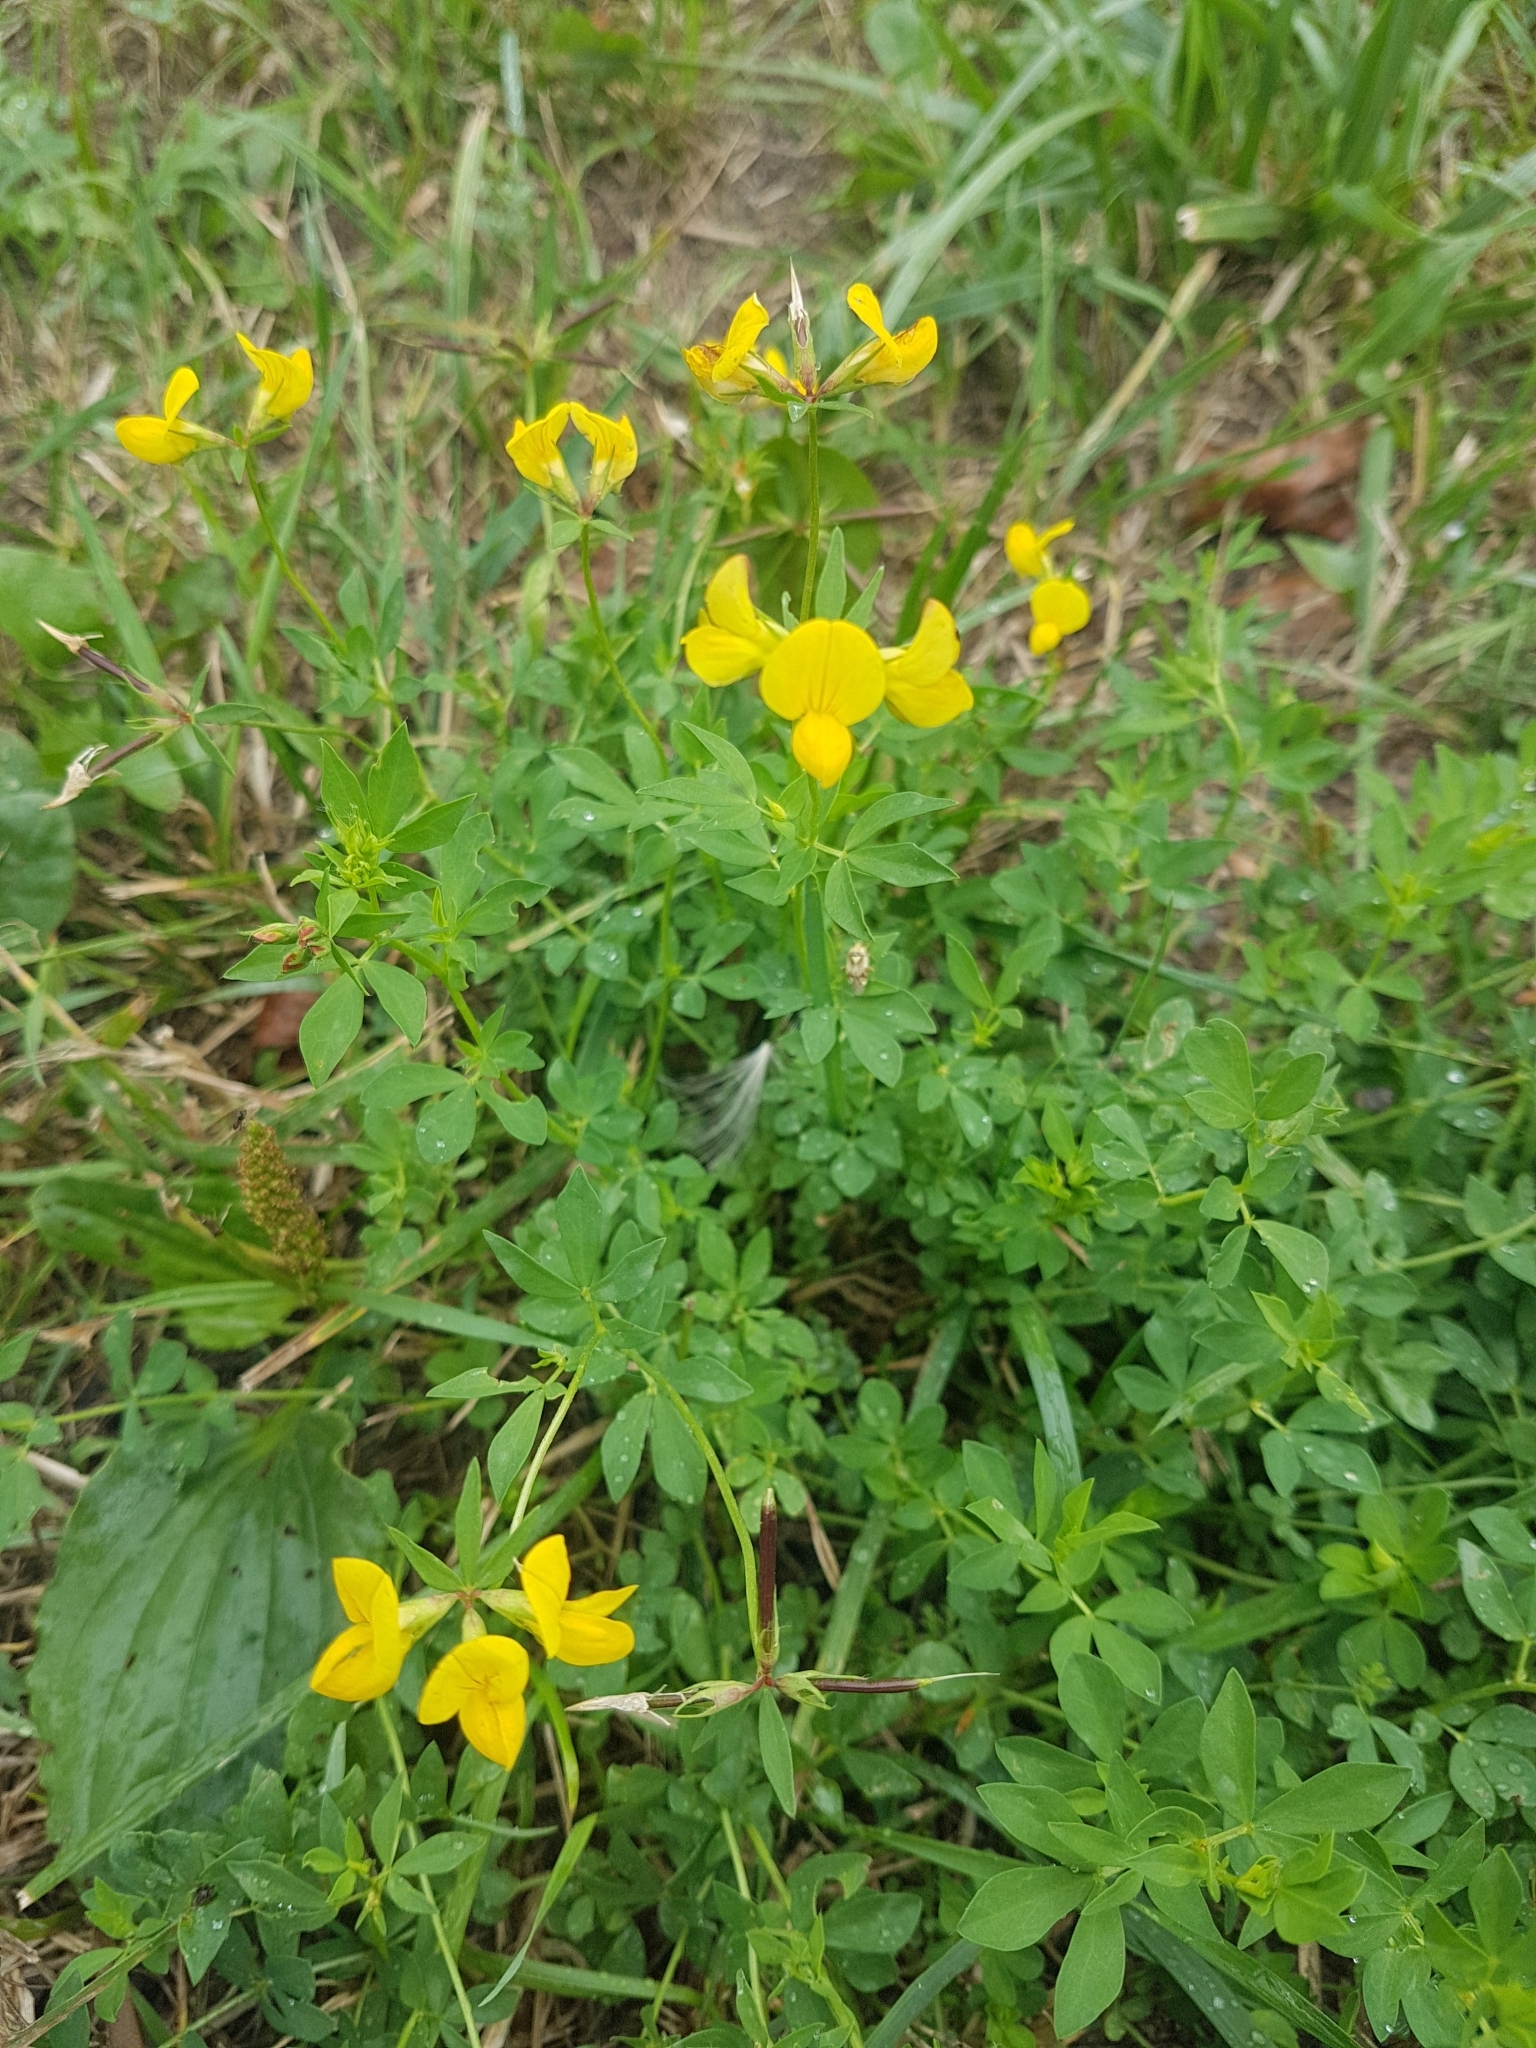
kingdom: Plantae
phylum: Tracheophyta
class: Magnoliopsida
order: Fabales
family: Fabaceae
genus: Lotus
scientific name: Lotus corniculatus
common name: Common bird's-foot-trefoil
